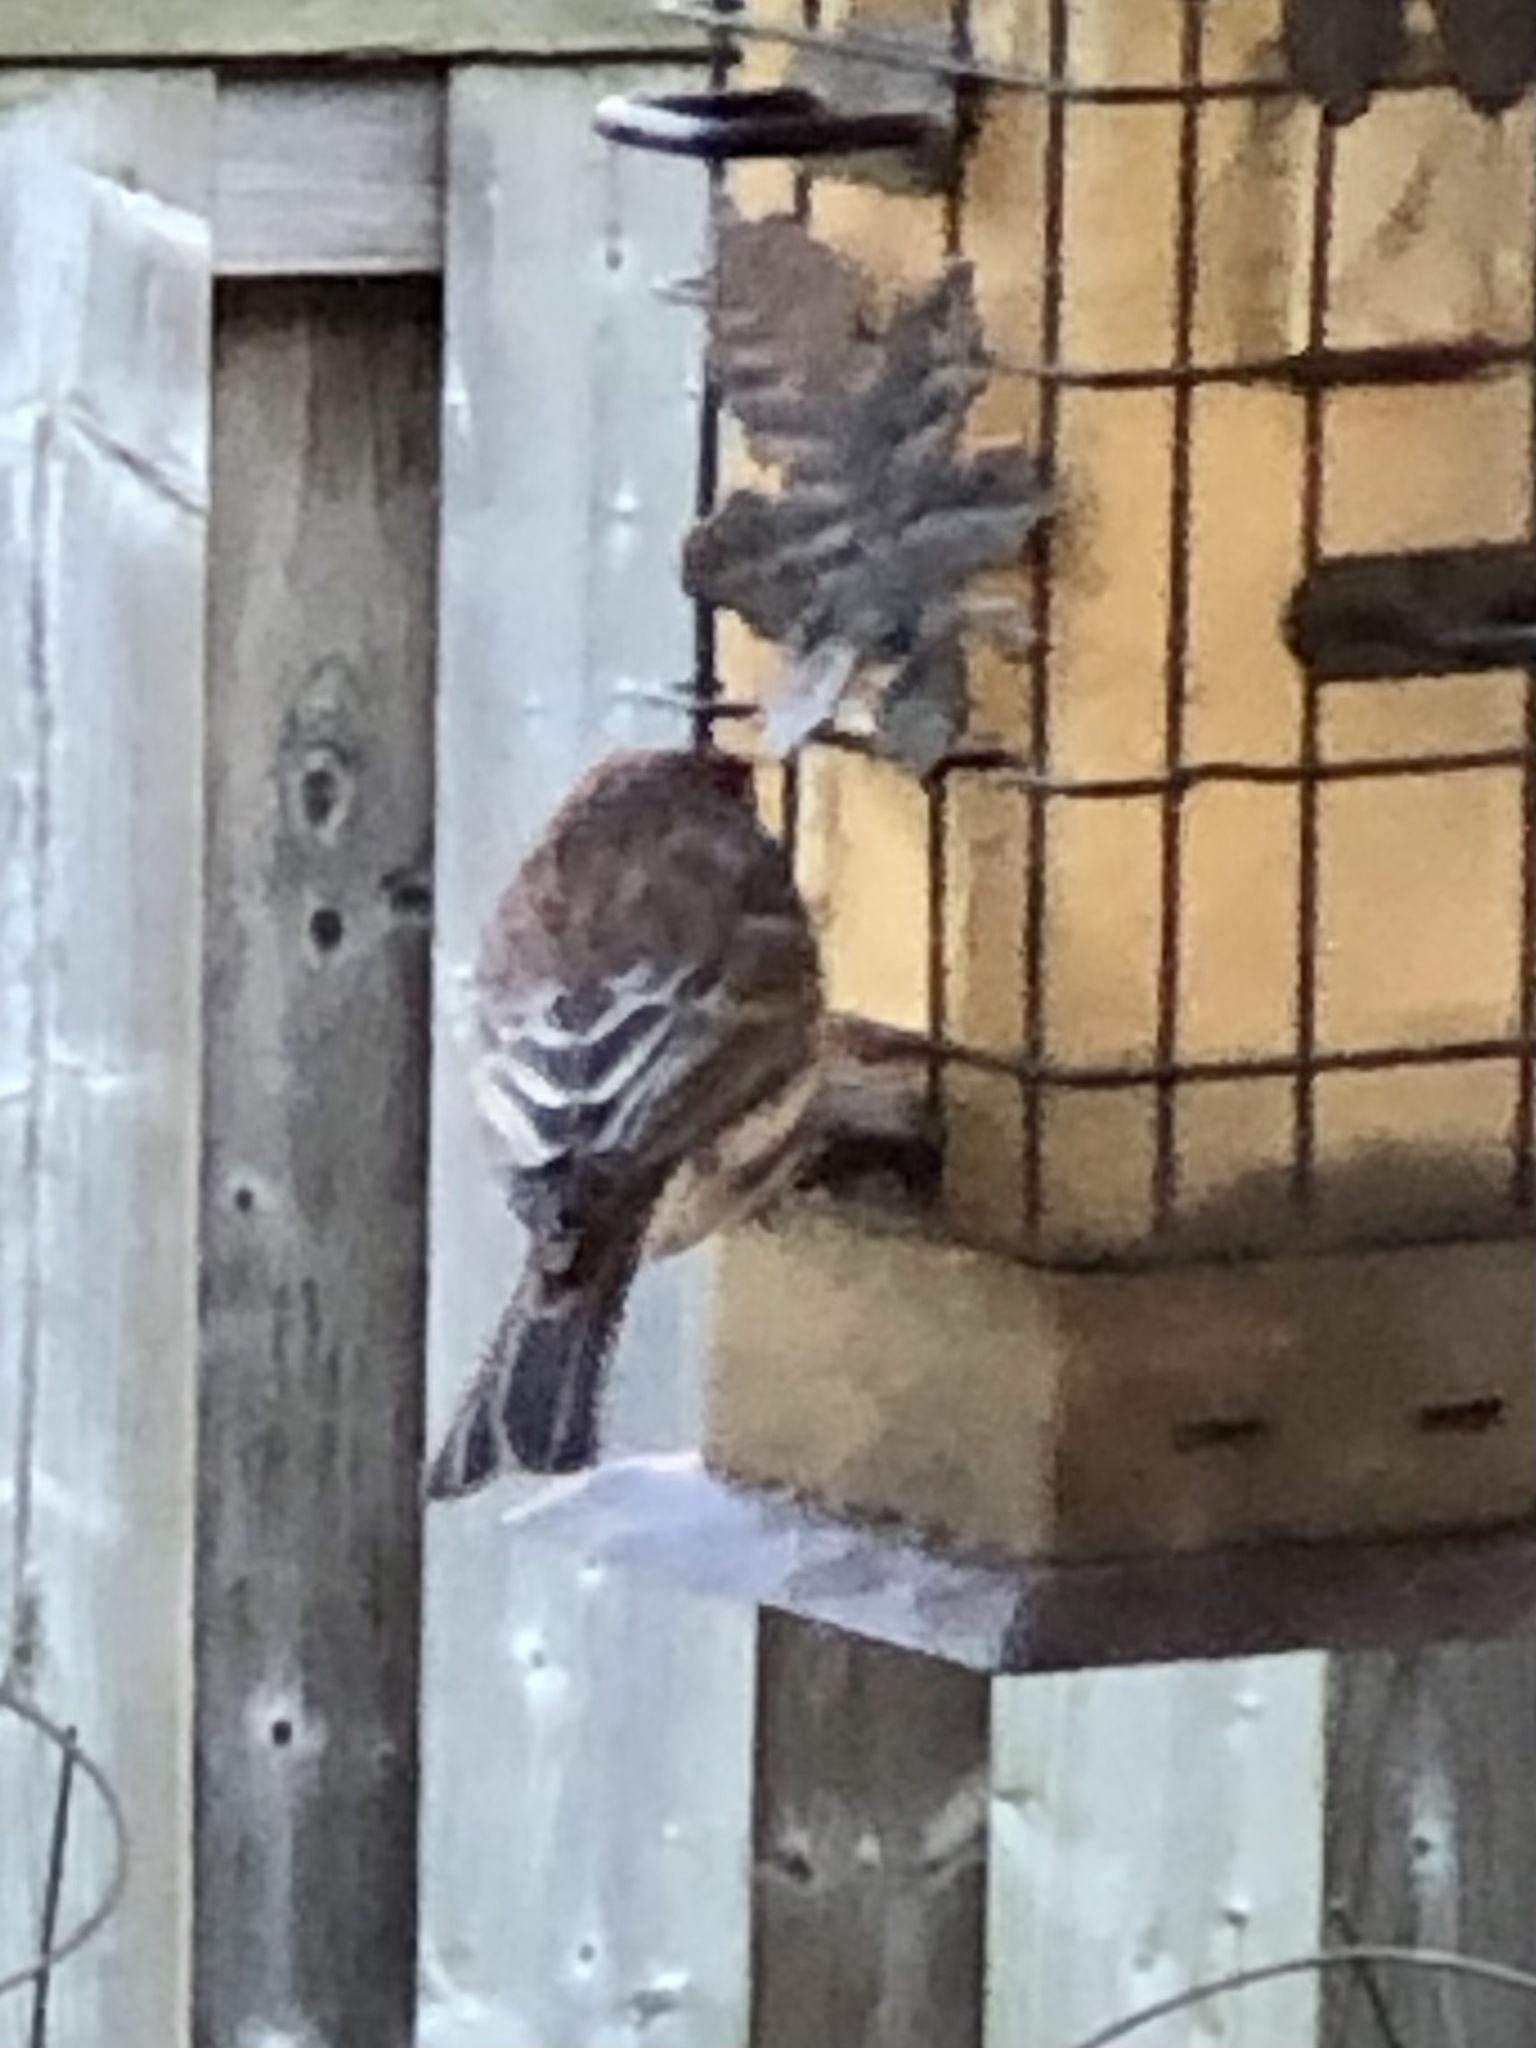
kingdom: Animalia
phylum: Chordata
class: Aves
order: Passeriformes
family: Fringillidae
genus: Haemorhous
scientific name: Haemorhous mexicanus
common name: House finch
